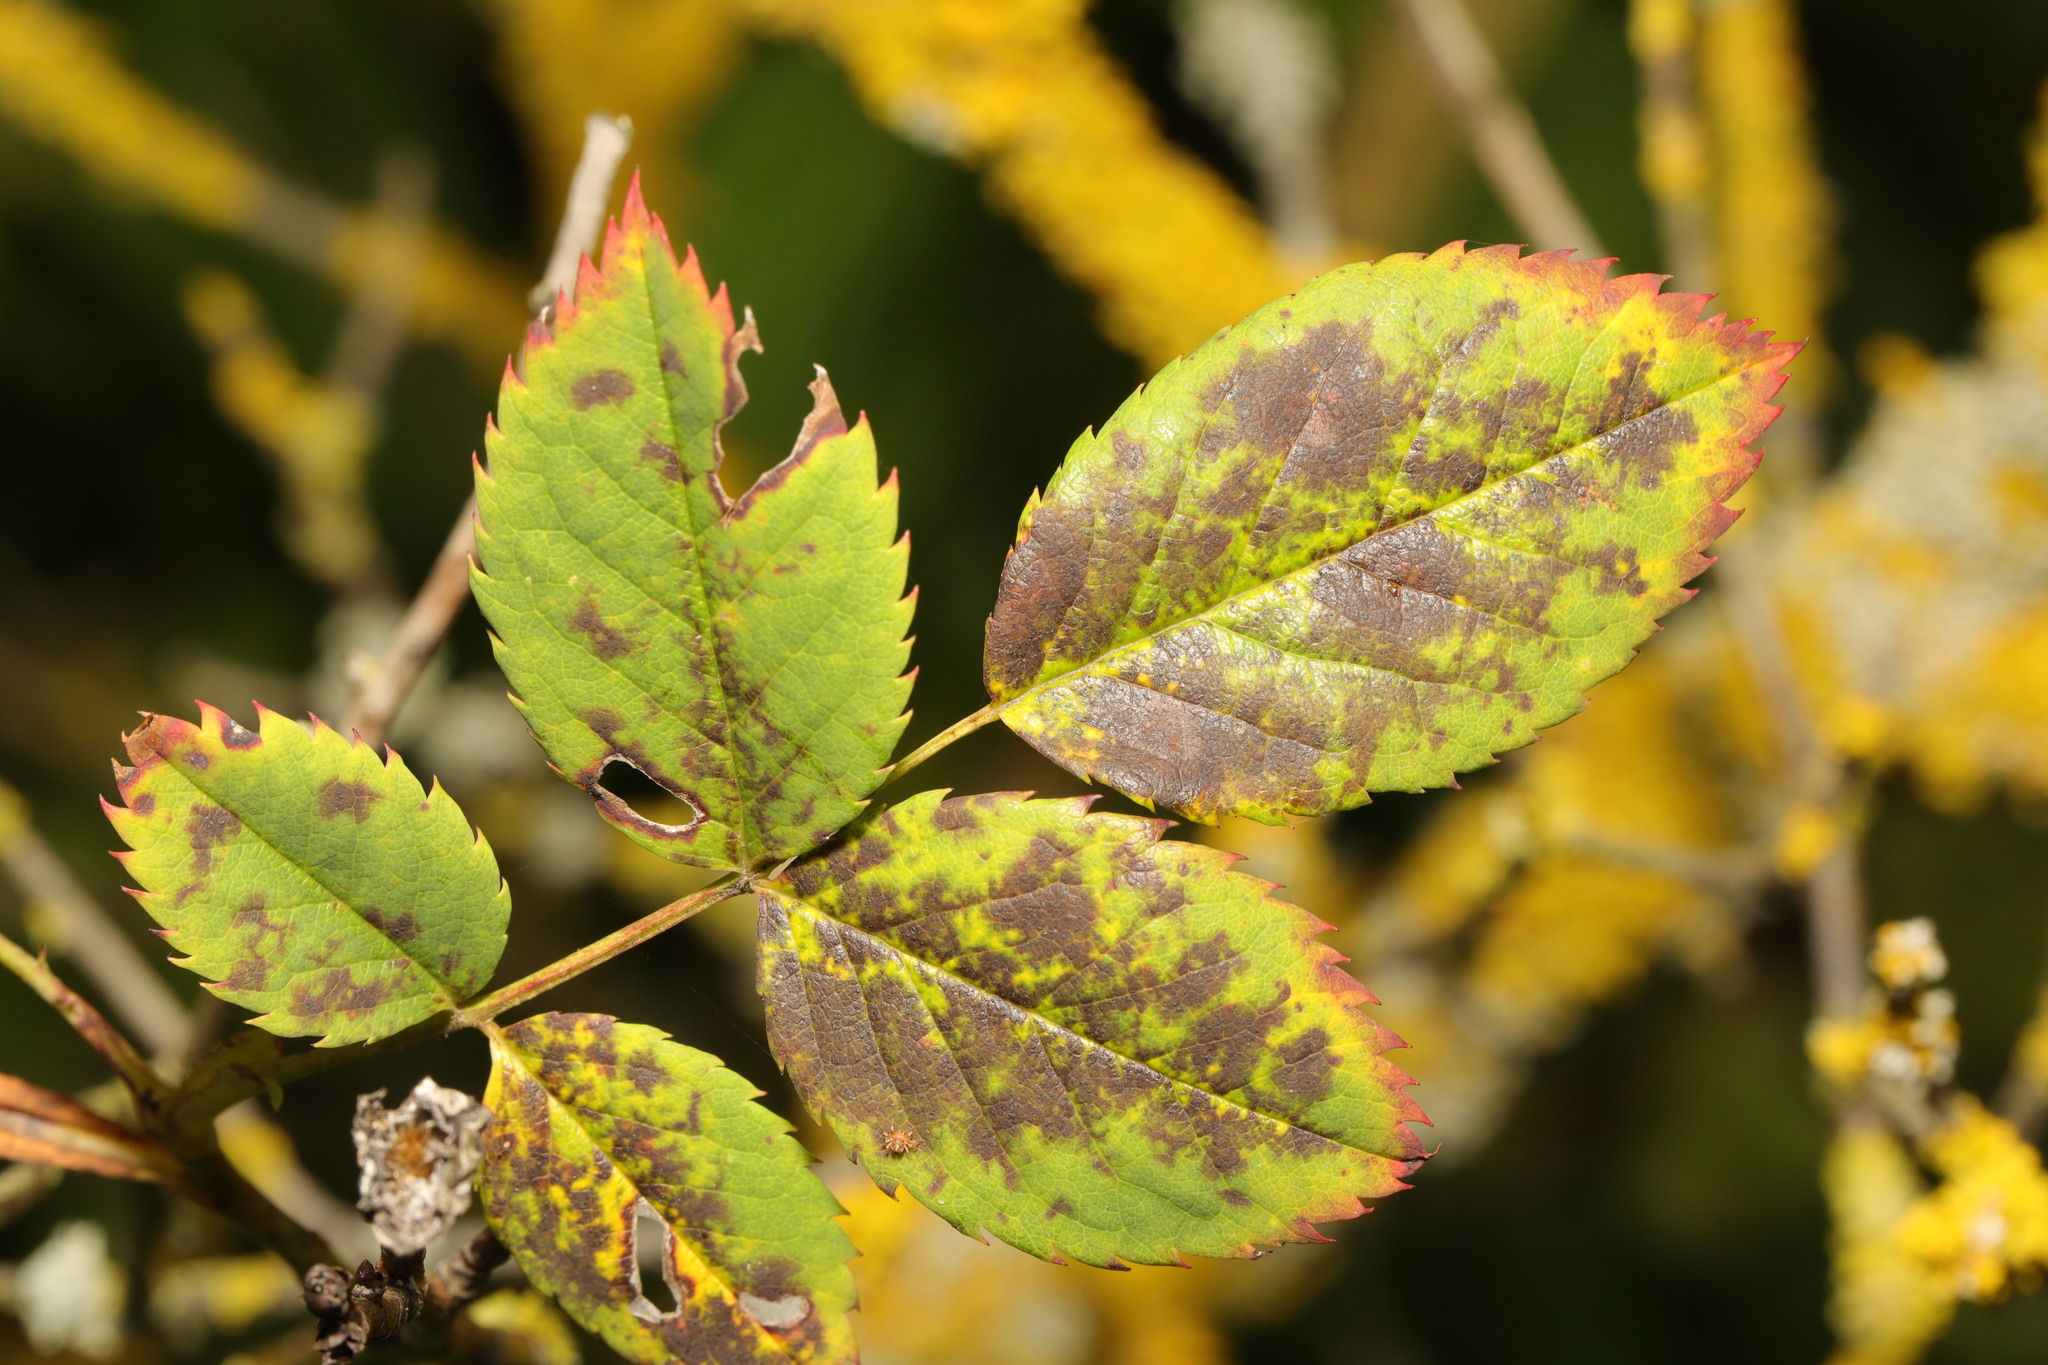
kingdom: Fungi
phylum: Ascomycota
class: Leotiomycetes
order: Helotiales
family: Drepanopezizaceae
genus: Diplocarpon
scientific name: Diplocarpon rosae
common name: Rose black-spot
